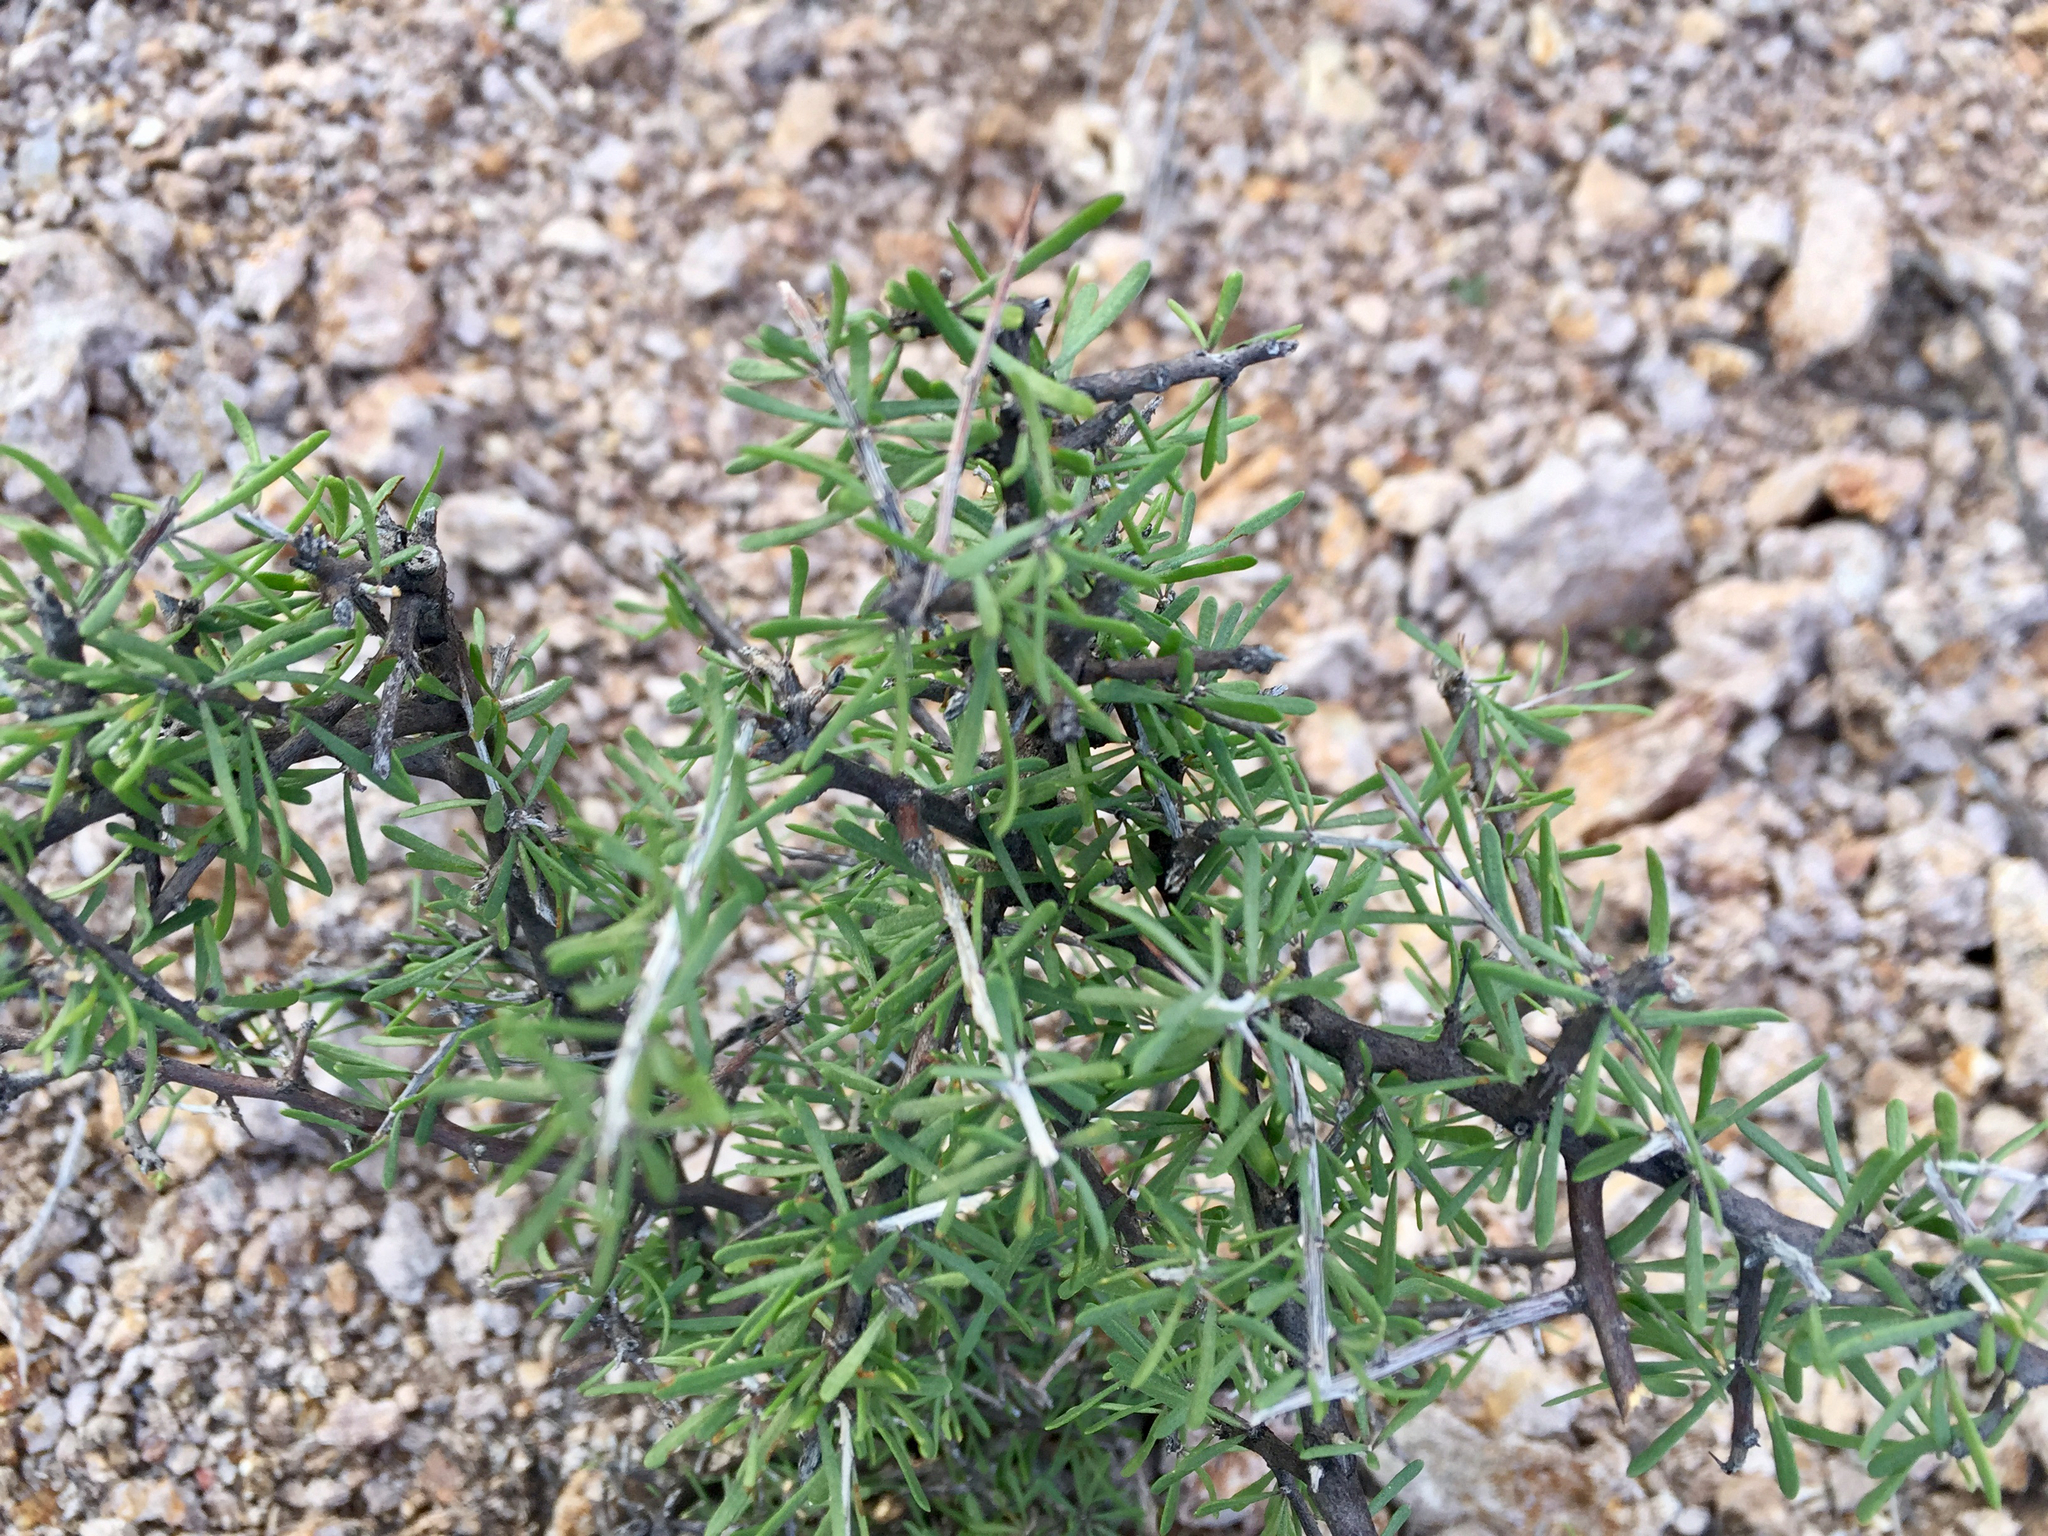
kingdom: Plantae
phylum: Tracheophyta
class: Magnoliopsida
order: Solanales
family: Solanaceae
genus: Lycium
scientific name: Lycium berlandieri
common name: Berlandier wolfberry
